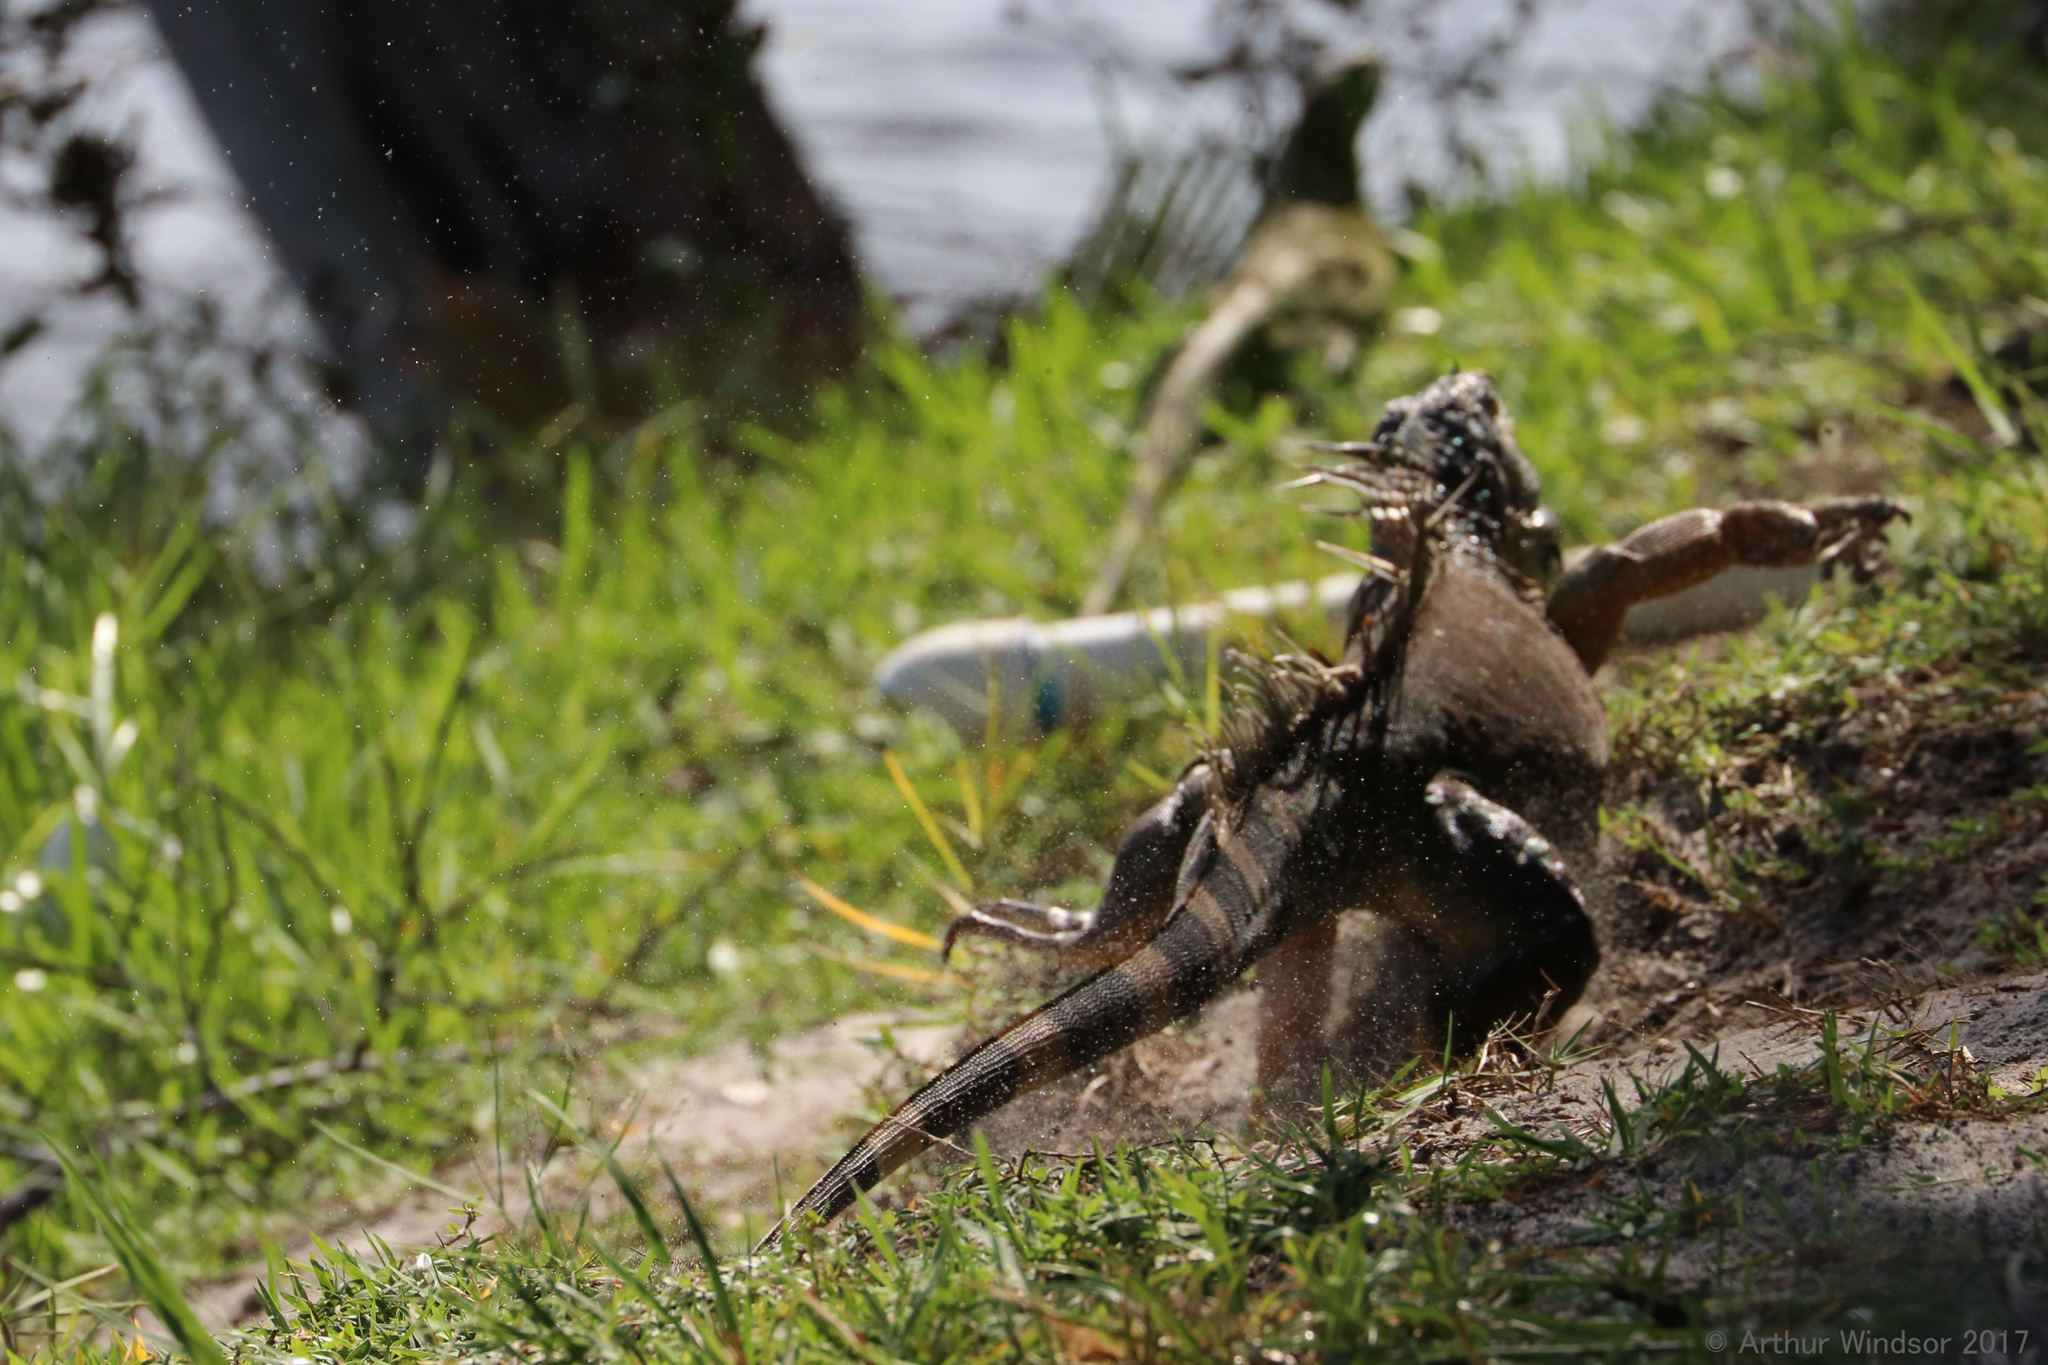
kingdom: Animalia
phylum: Chordata
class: Squamata
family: Iguanidae
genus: Iguana
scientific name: Iguana iguana
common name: Green iguana
